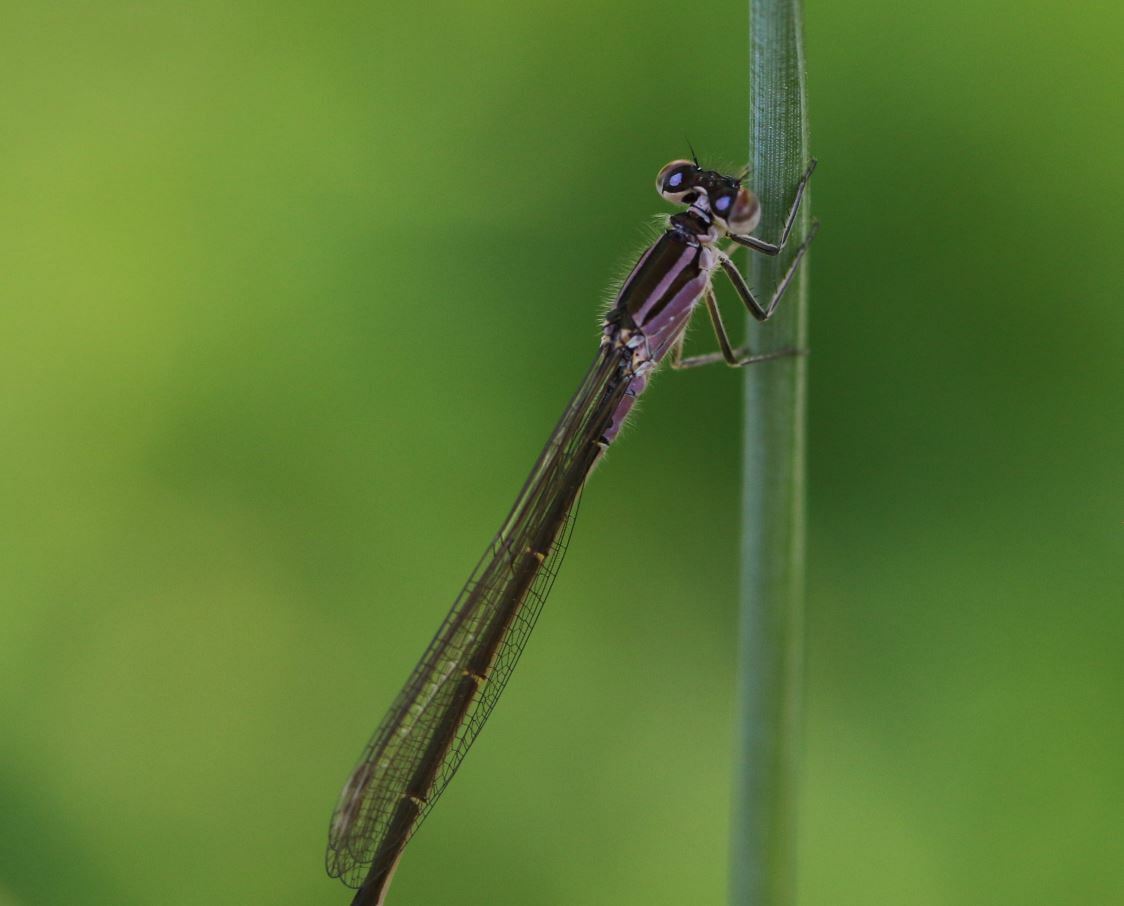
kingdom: Animalia
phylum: Arthropoda
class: Insecta
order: Odonata
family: Coenagrionidae
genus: Ischnura
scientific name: Ischnura elegans
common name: Blue-tailed damselfly
